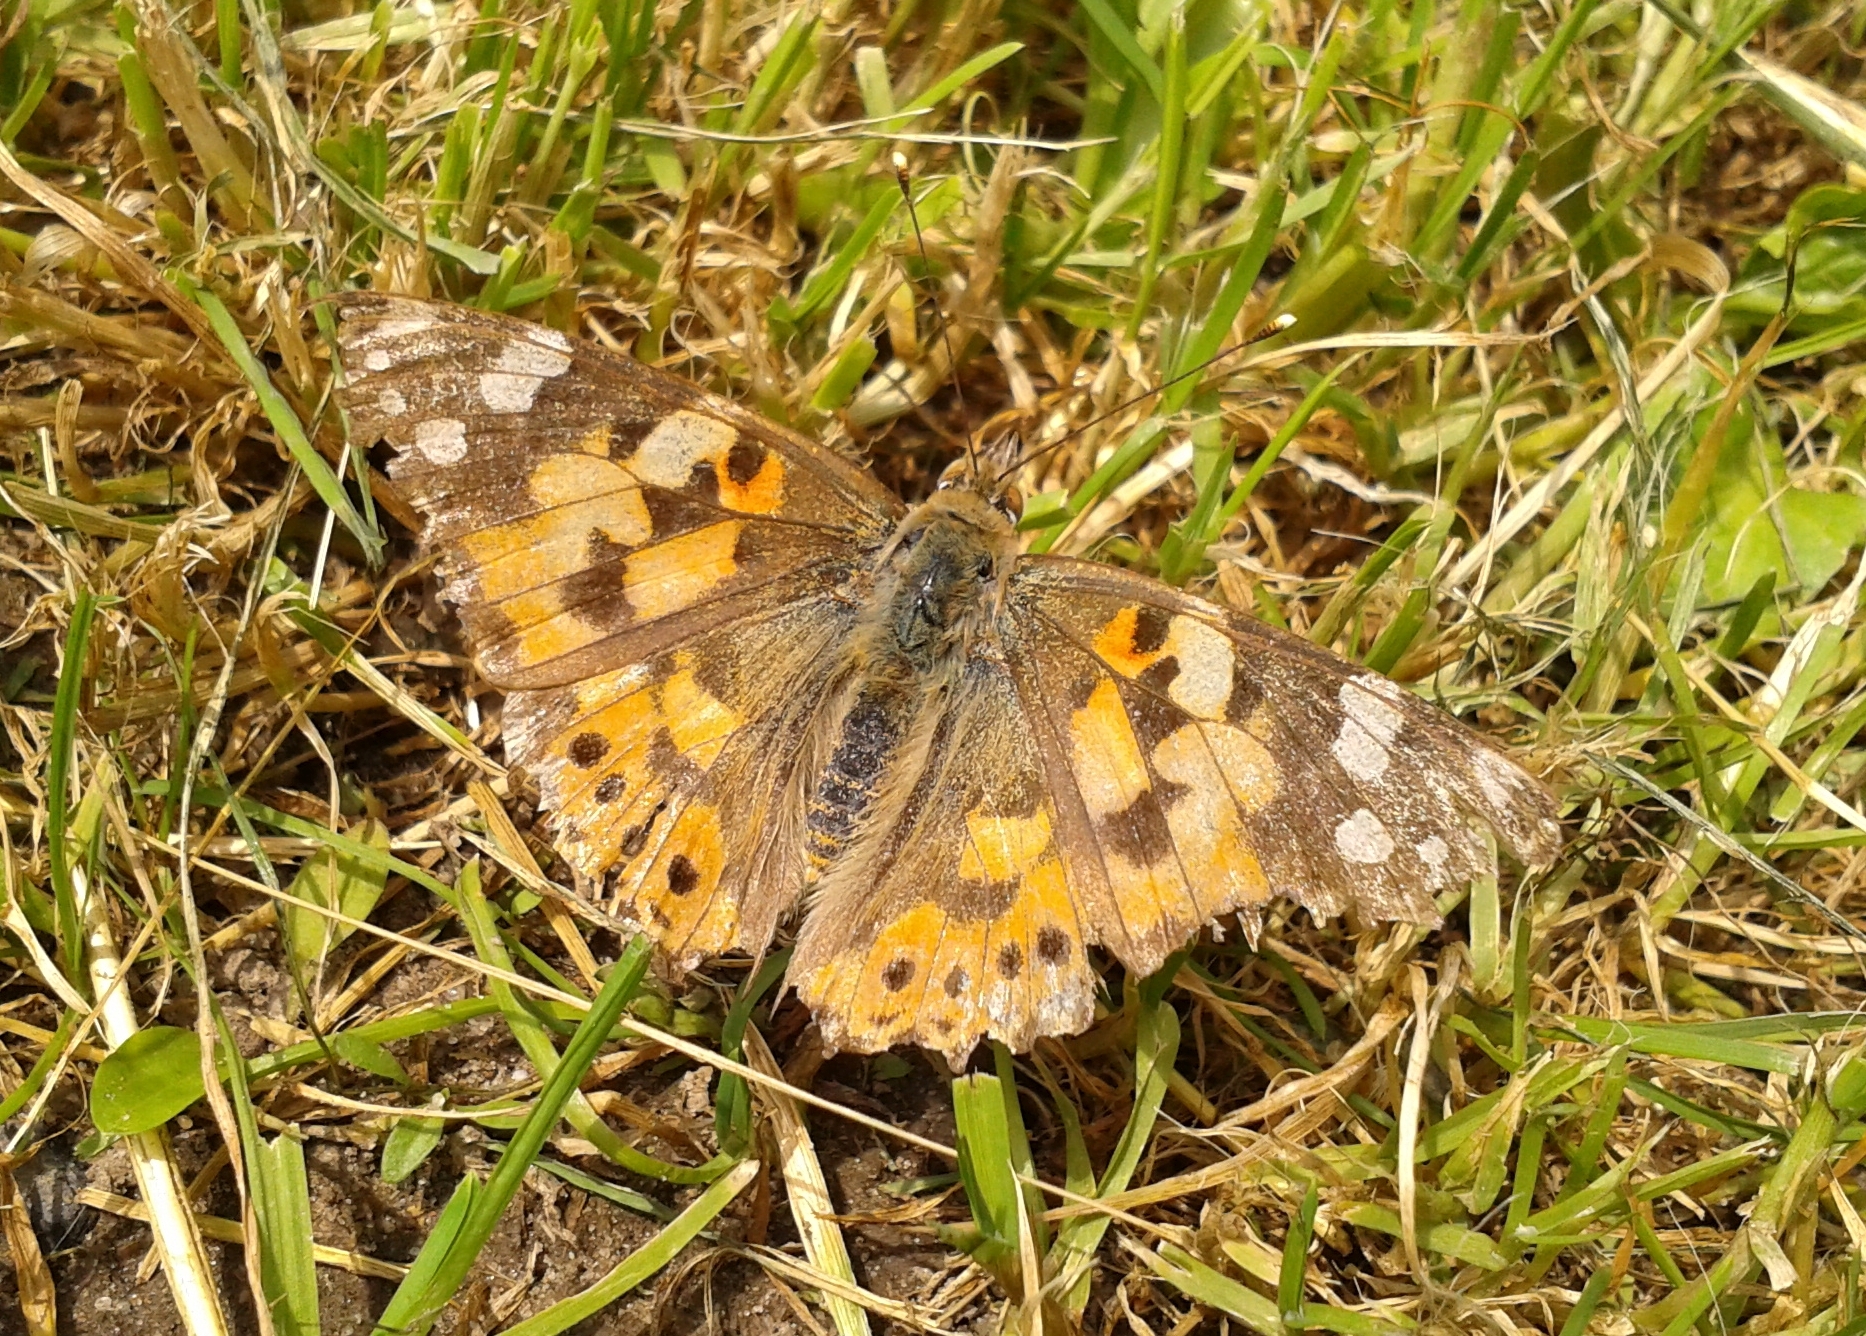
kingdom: Animalia
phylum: Arthropoda
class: Insecta
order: Lepidoptera
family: Nymphalidae
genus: Vanessa
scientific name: Vanessa cardui
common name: Painted lady
